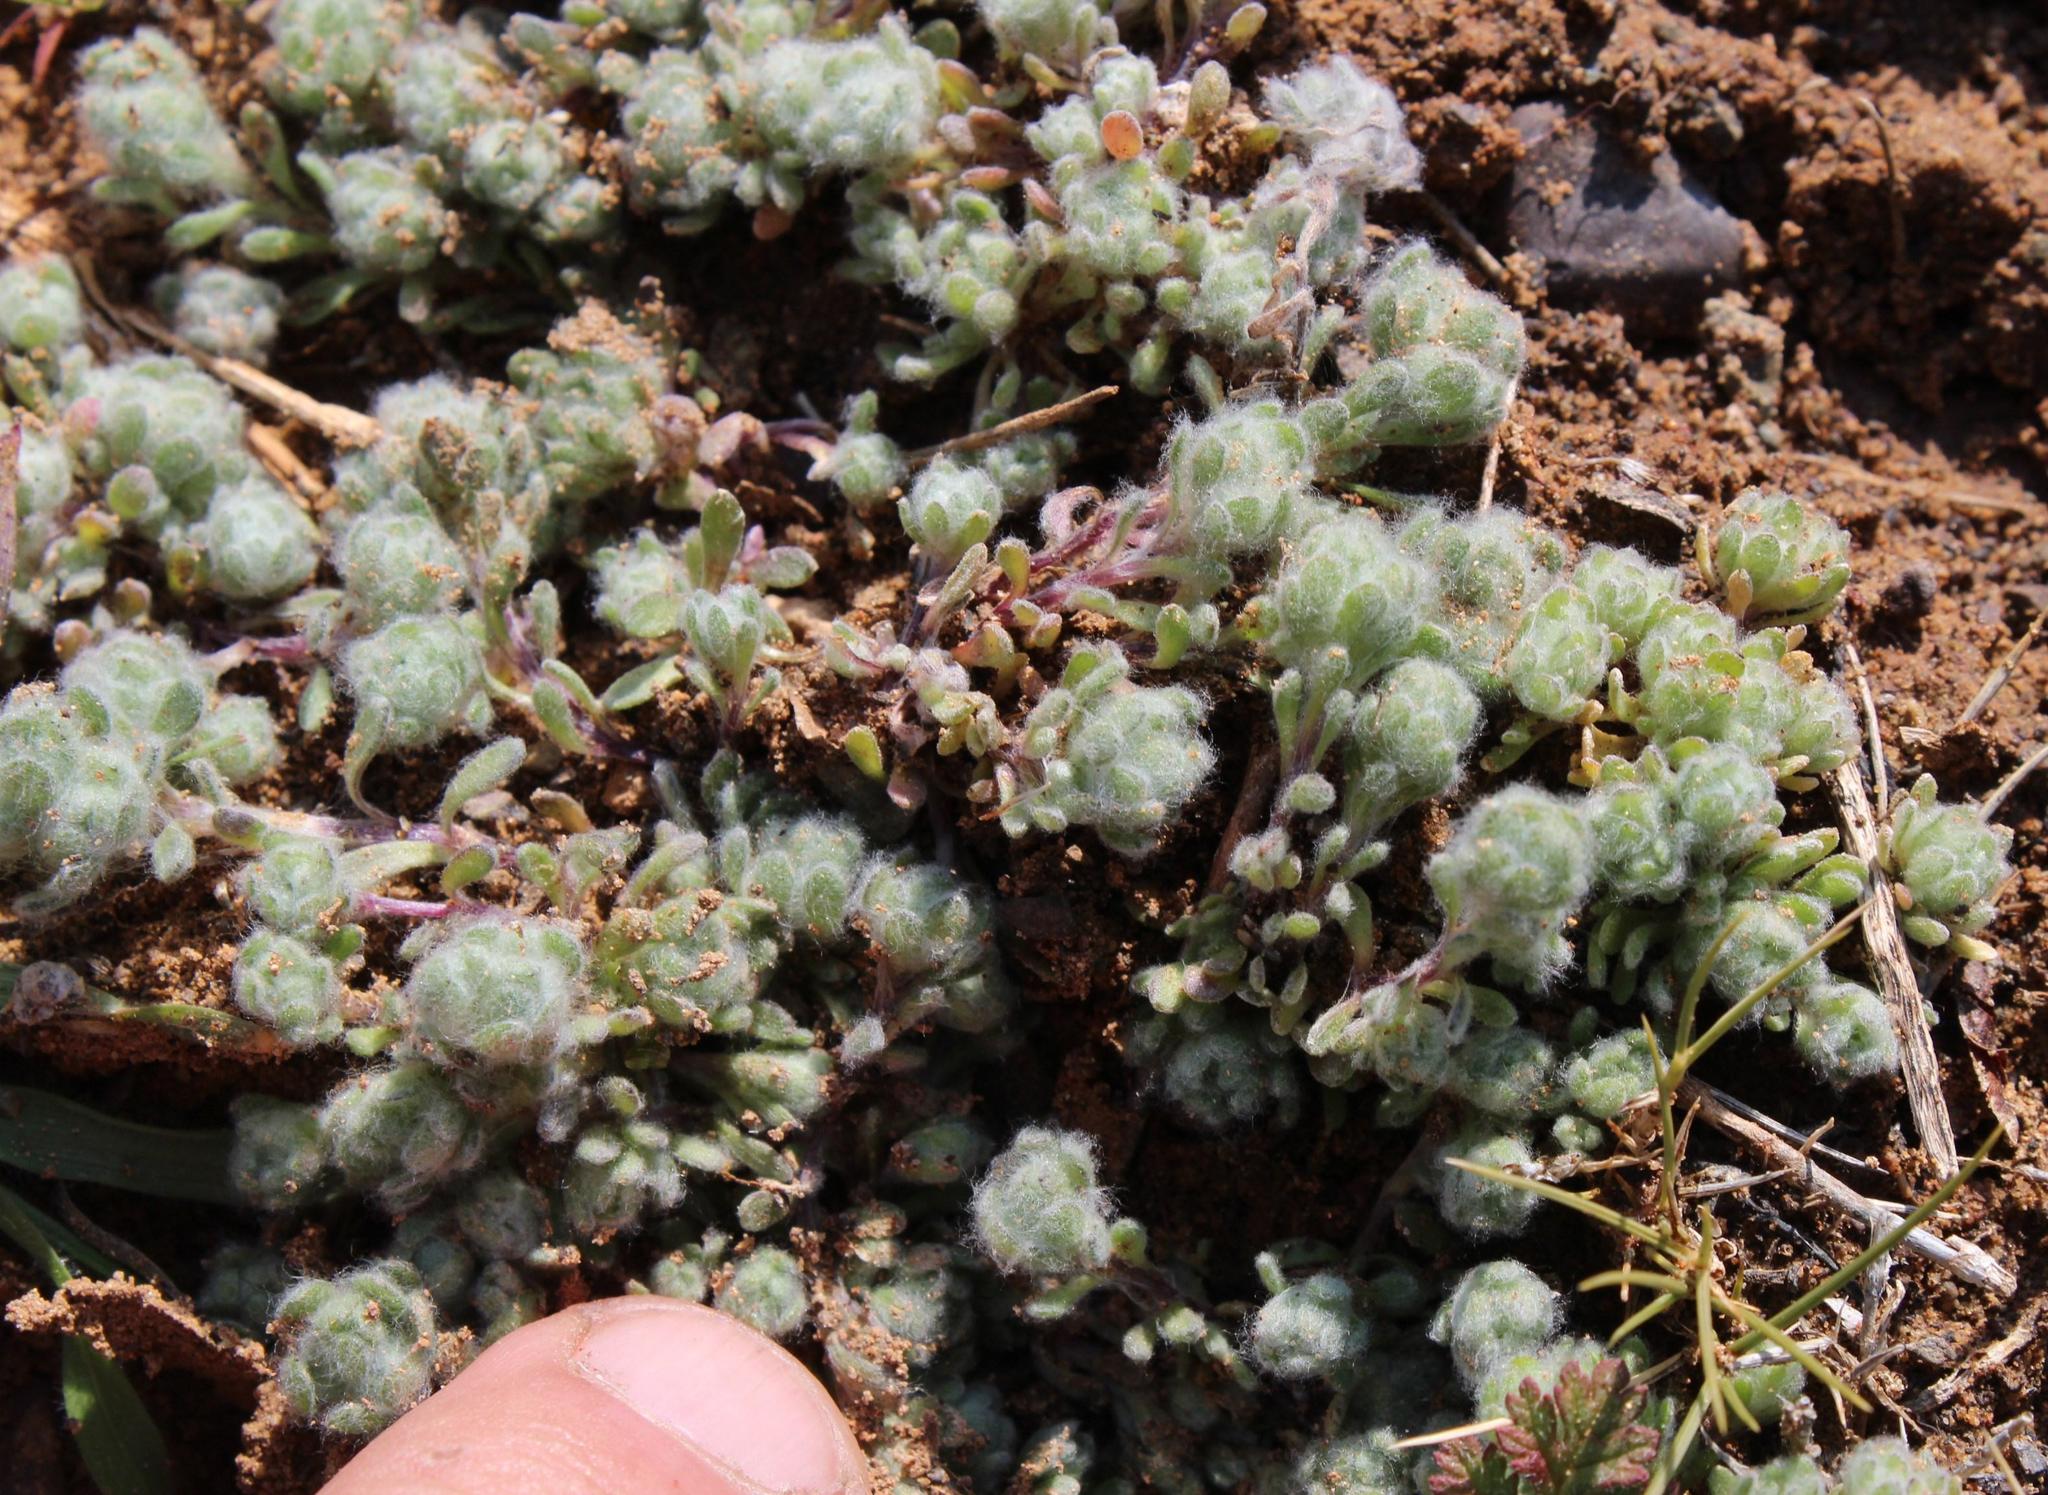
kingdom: Plantae
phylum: Tracheophyta
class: Magnoliopsida
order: Asterales
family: Asteraceae
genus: Galeomma
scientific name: Galeomma oculus-cati
